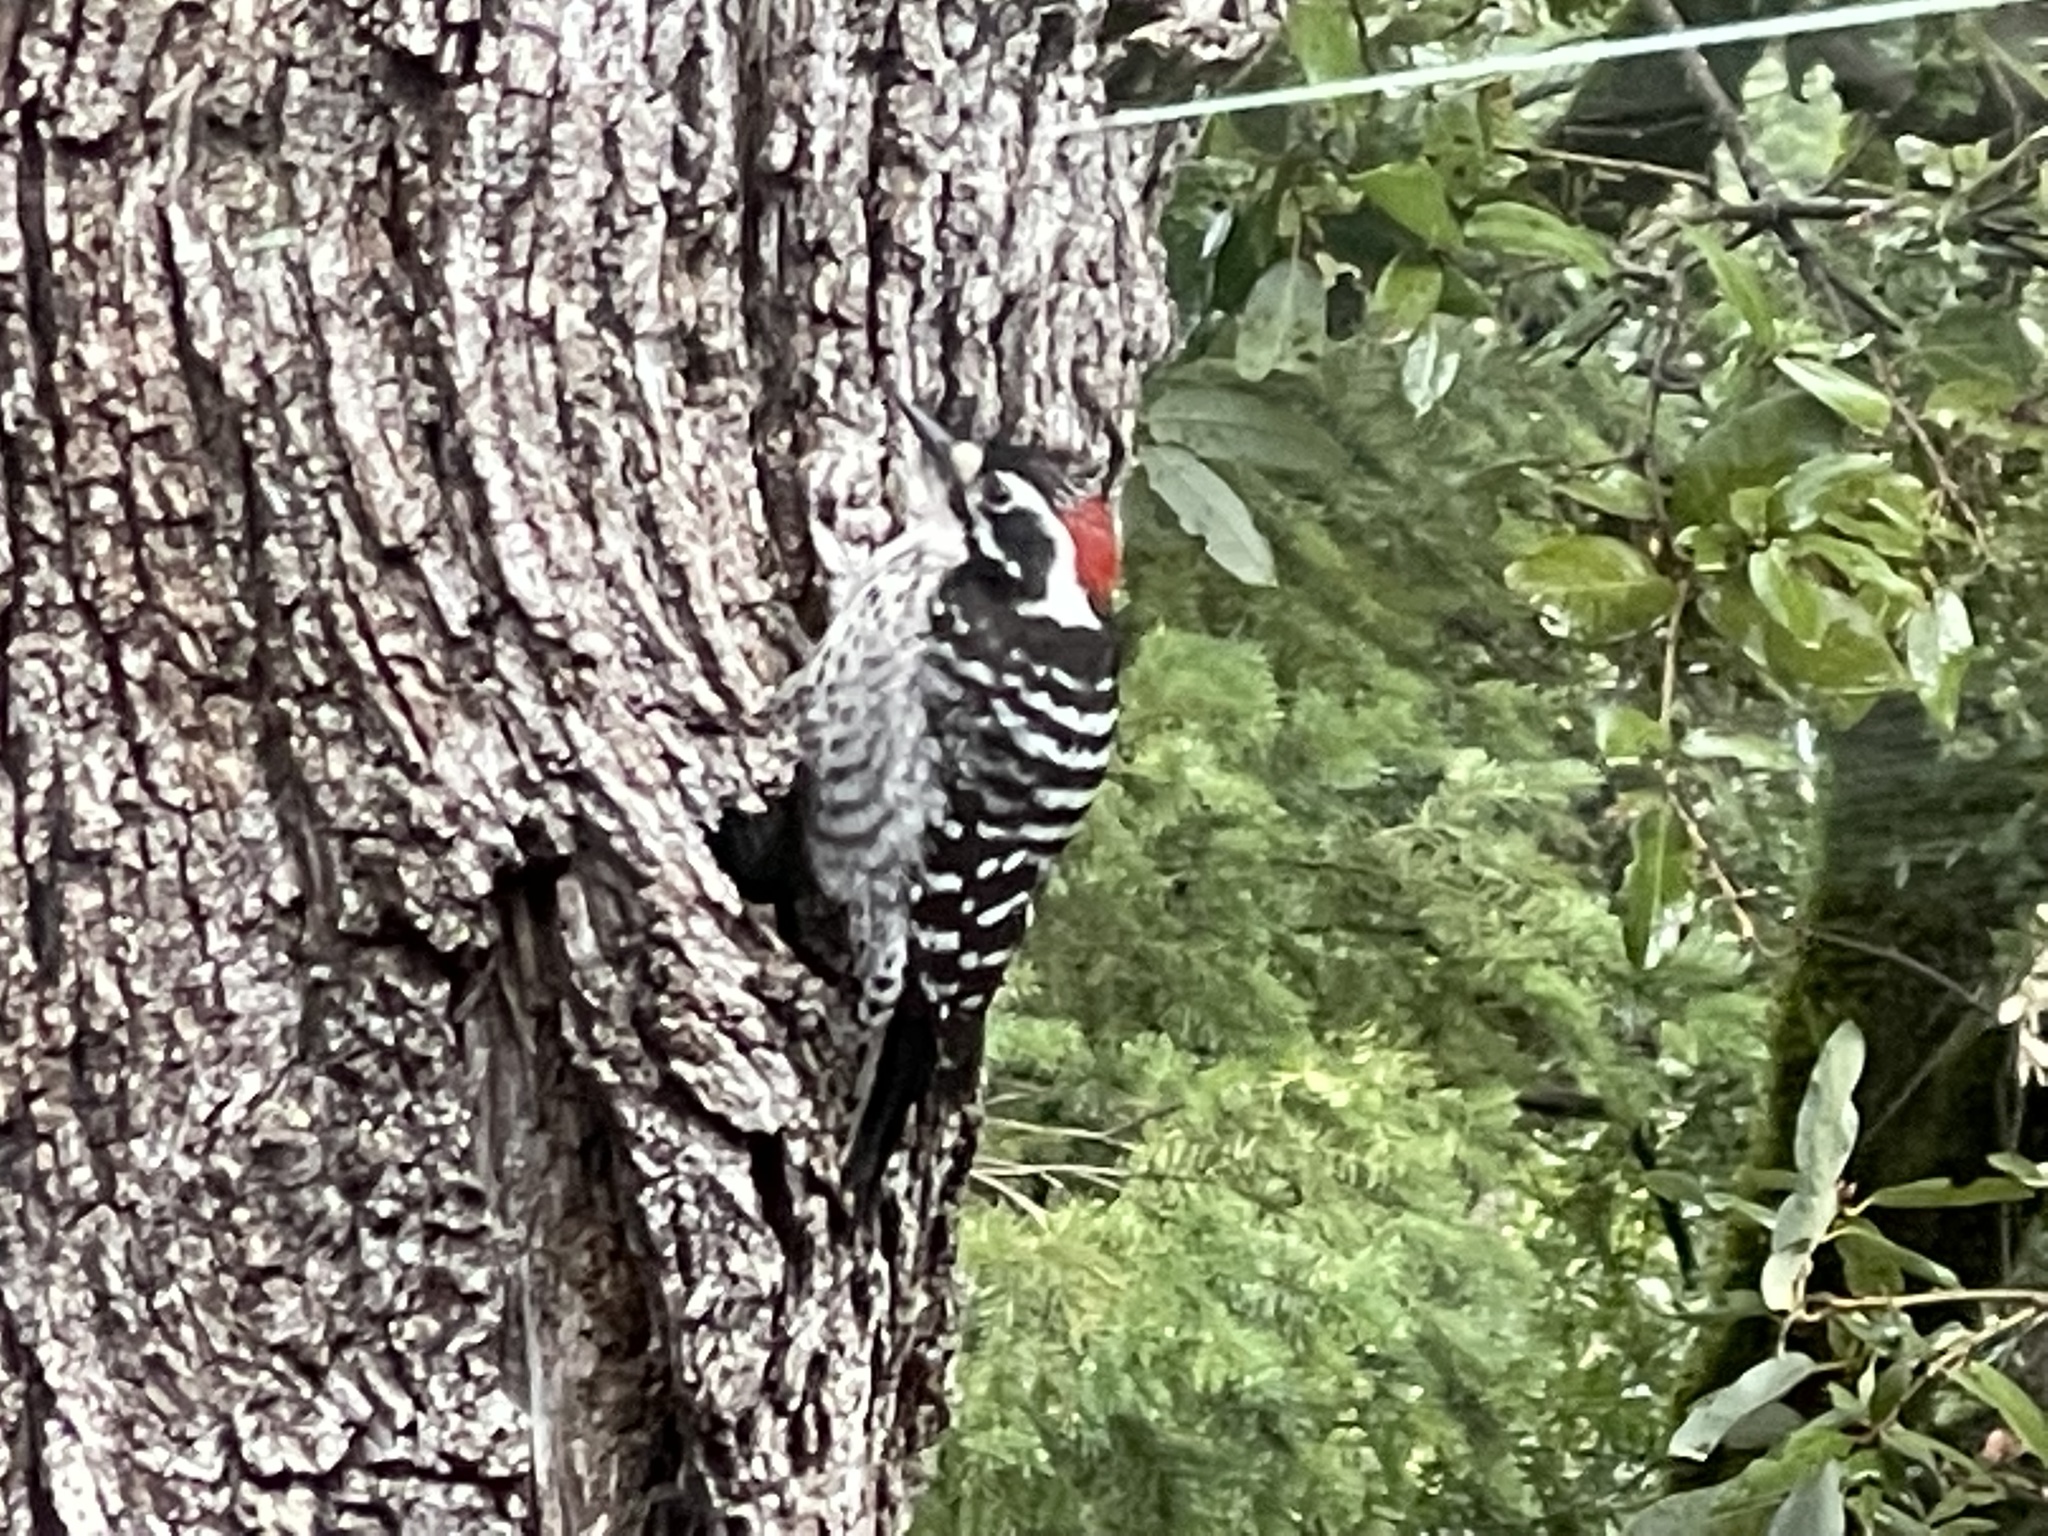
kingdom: Animalia
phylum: Chordata
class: Aves
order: Piciformes
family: Picidae
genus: Dryobates
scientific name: Dryobates nuttallii
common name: Nuttall's woodpecker
